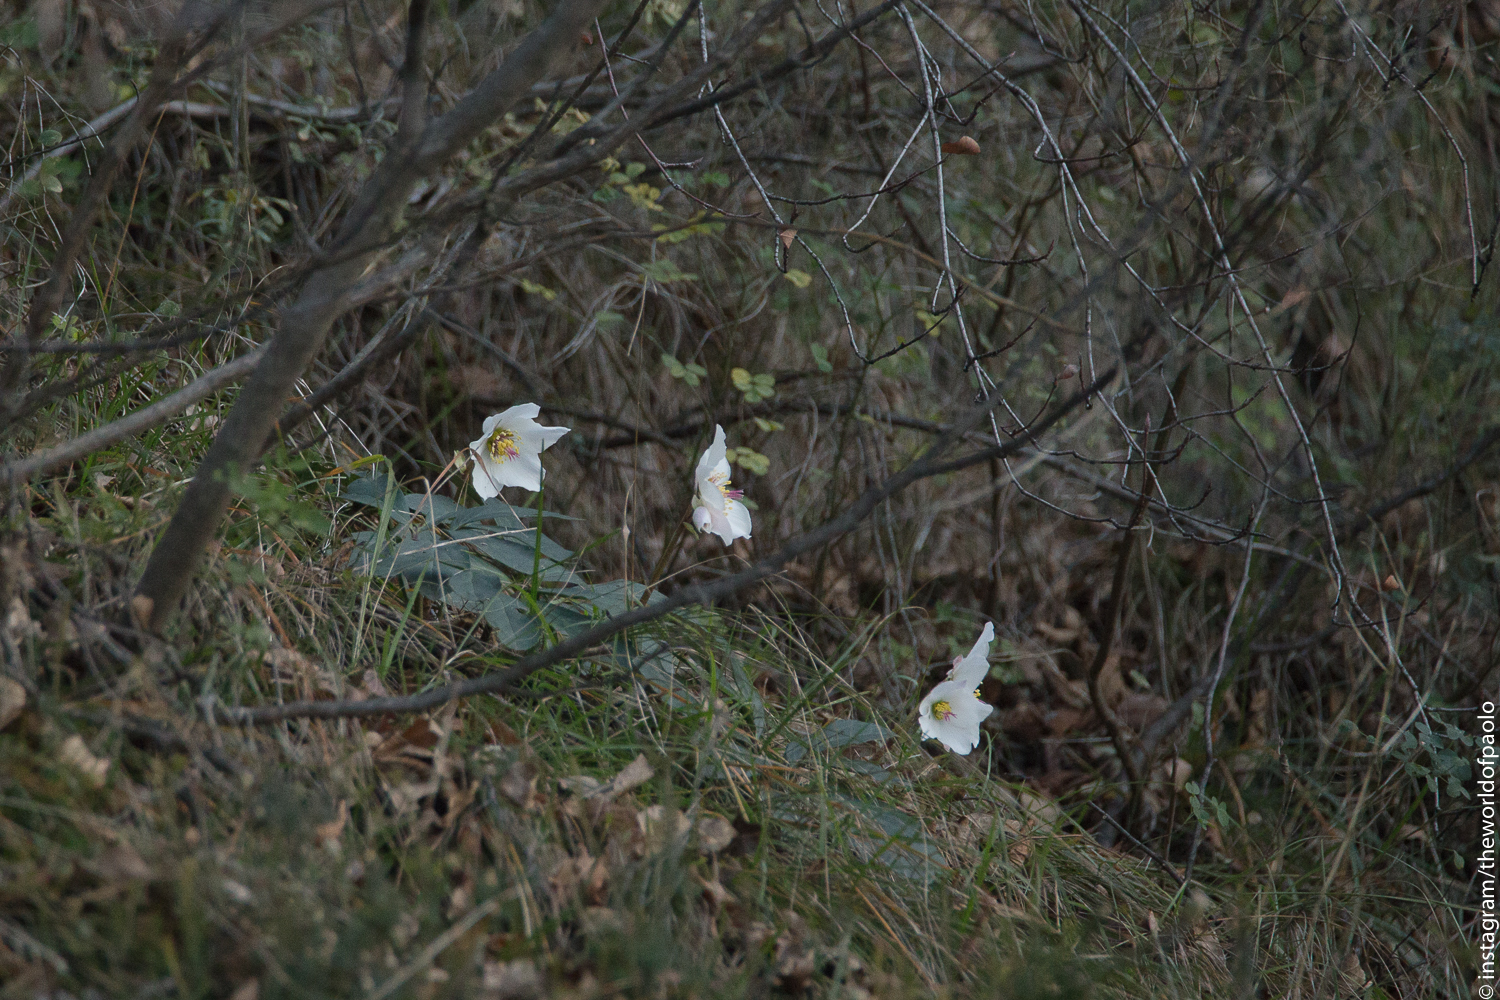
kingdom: Plantae
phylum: Tracheophyta
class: Magnoliopsida
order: Ranunculales
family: Ranunculaceae
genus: Helleborus
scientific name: Helleborus niger
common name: Black hellebore
